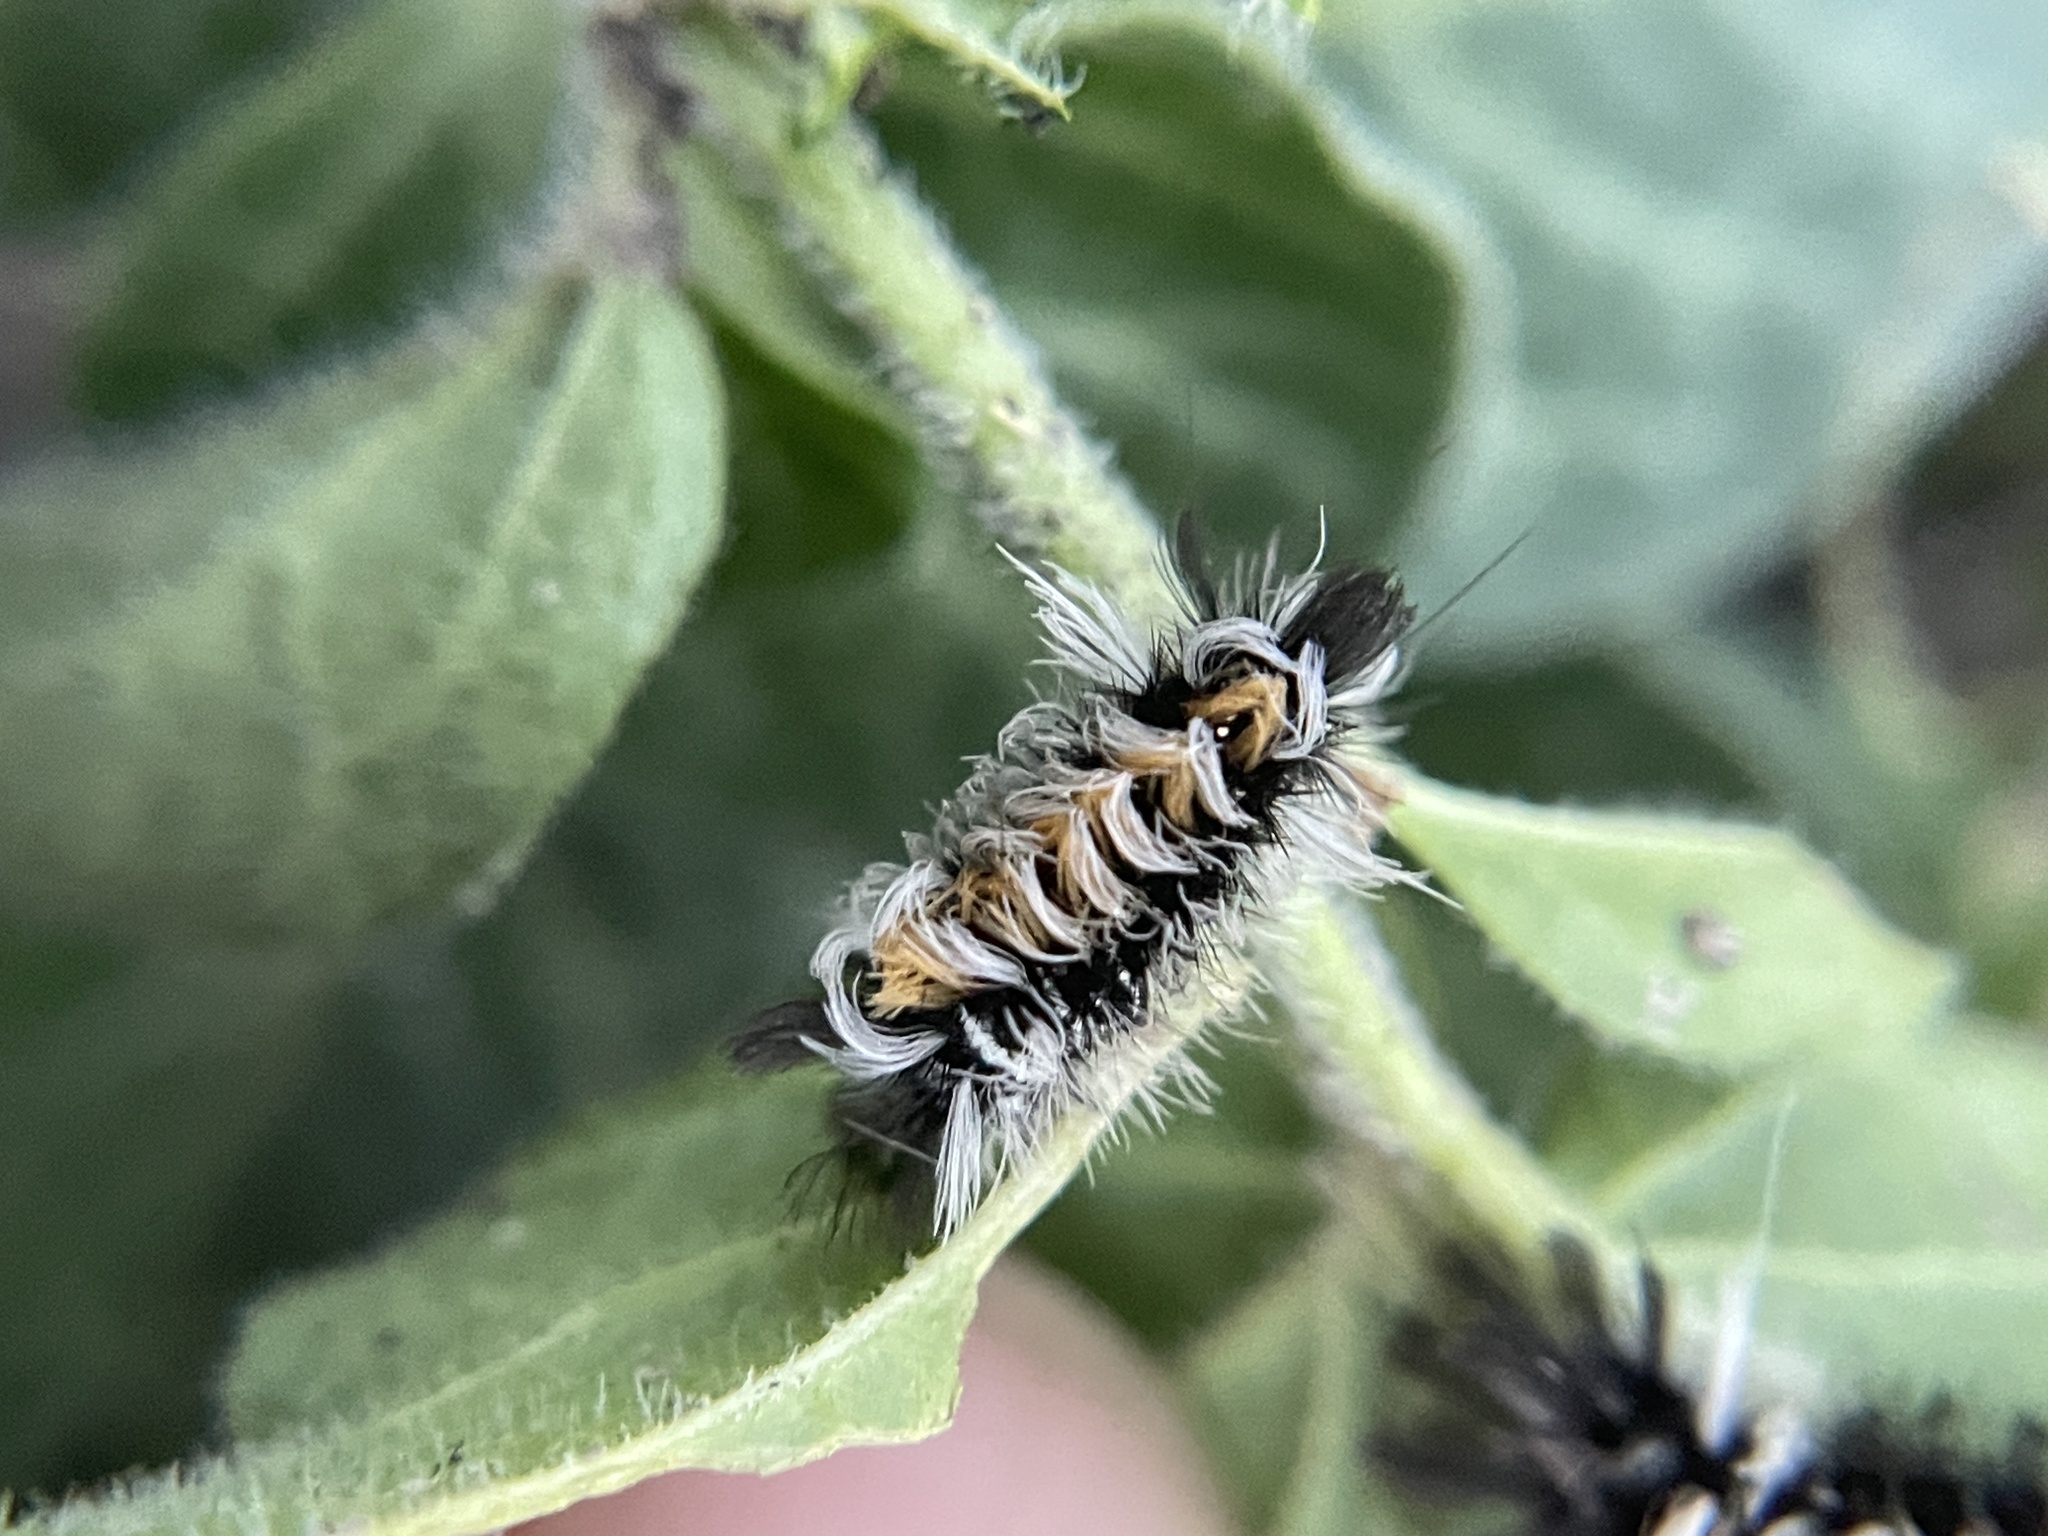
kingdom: Animalia
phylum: Arthropoda
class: Insecta
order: Lepidoptera
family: Erebidae
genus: Euchaetes
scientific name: Euchaetes bolteri
